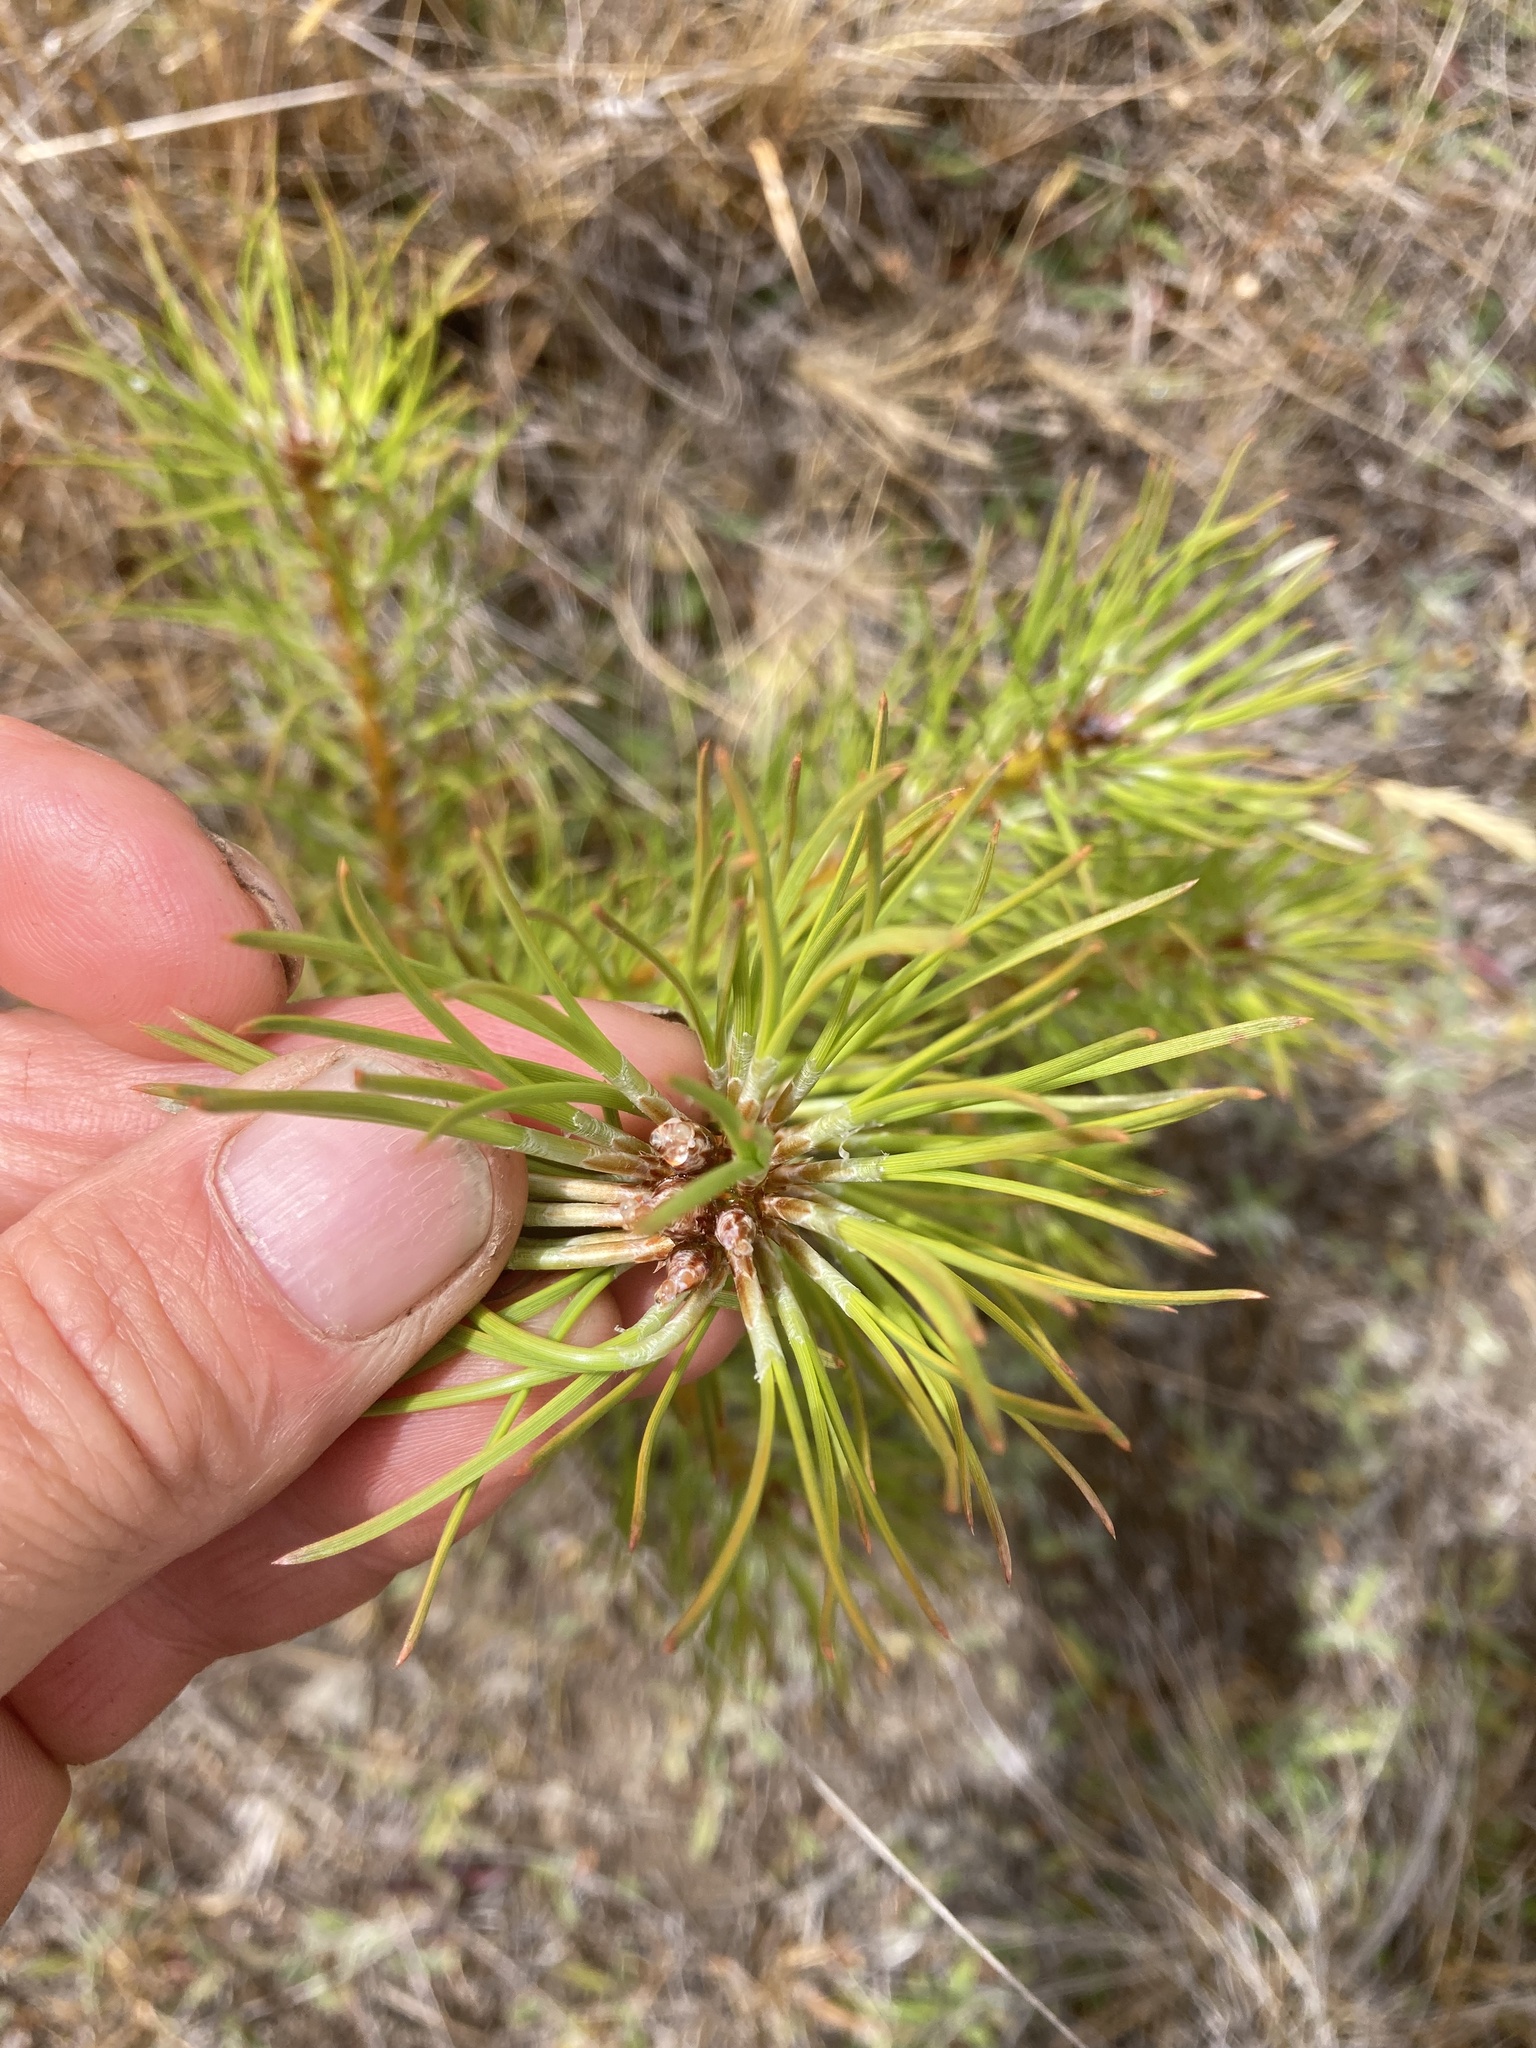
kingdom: Plantae
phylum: Tracheophyta
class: Pinopsida
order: Pinales
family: Pinaceae
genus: Pinus
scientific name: Pinus nigra
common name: Austrian pine
